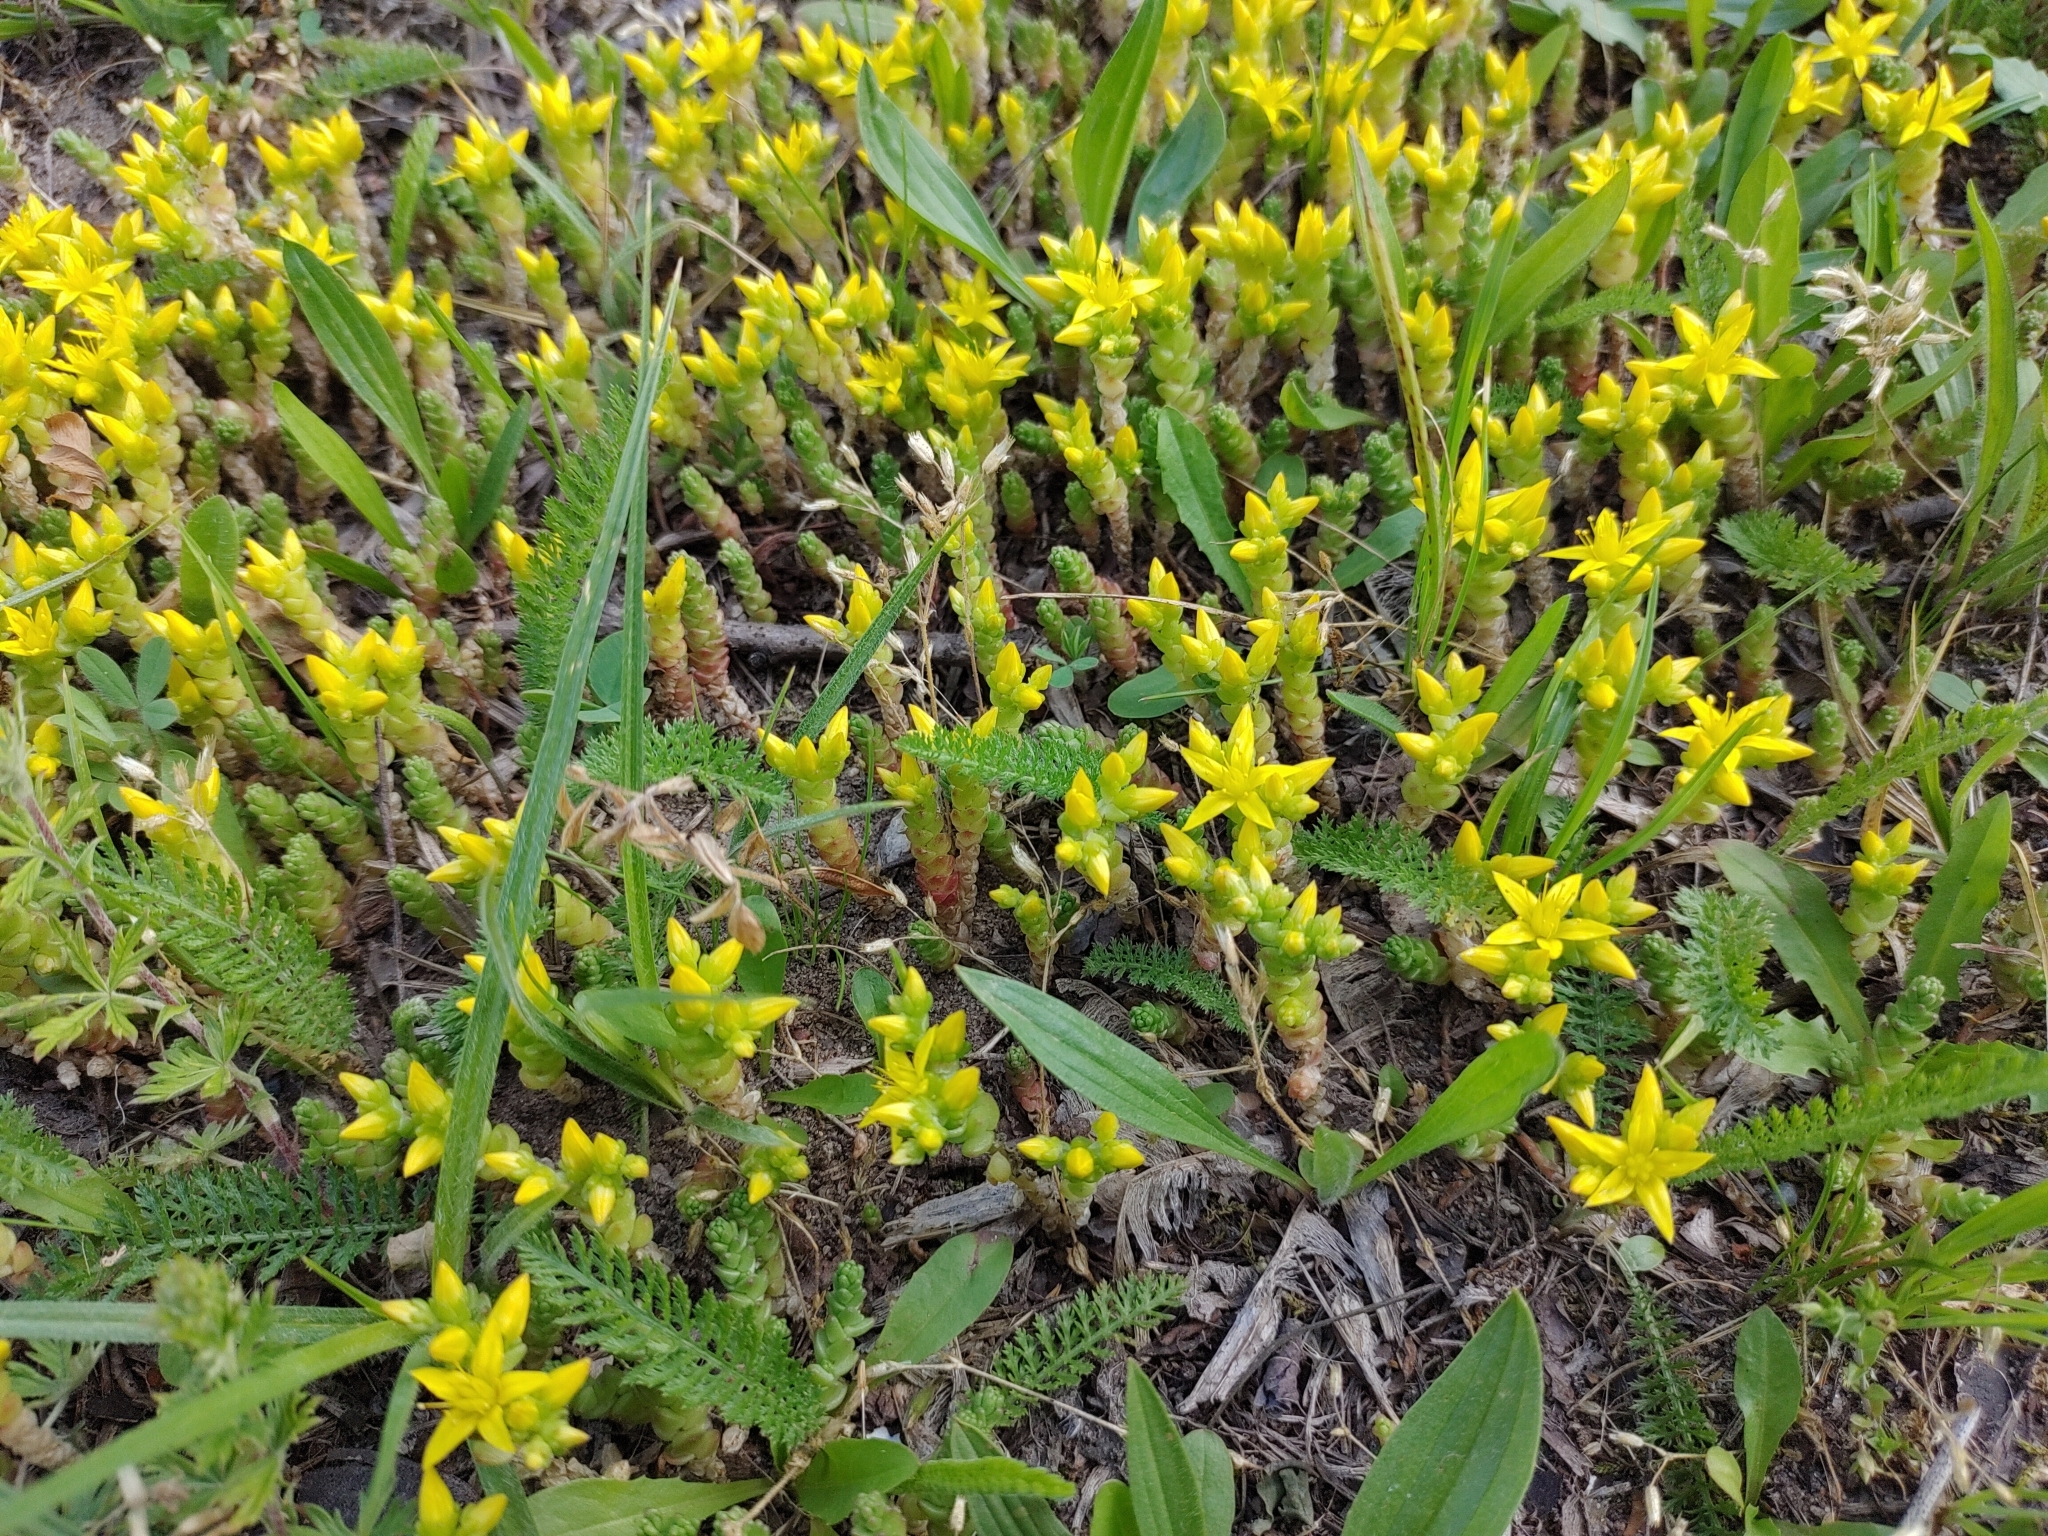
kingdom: Plantae
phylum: Tracheophyta
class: Magnoliopsida
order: Saxifragales
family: Crassulaceae
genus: Sedum
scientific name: Sedum acre
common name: Biting stonecrop
